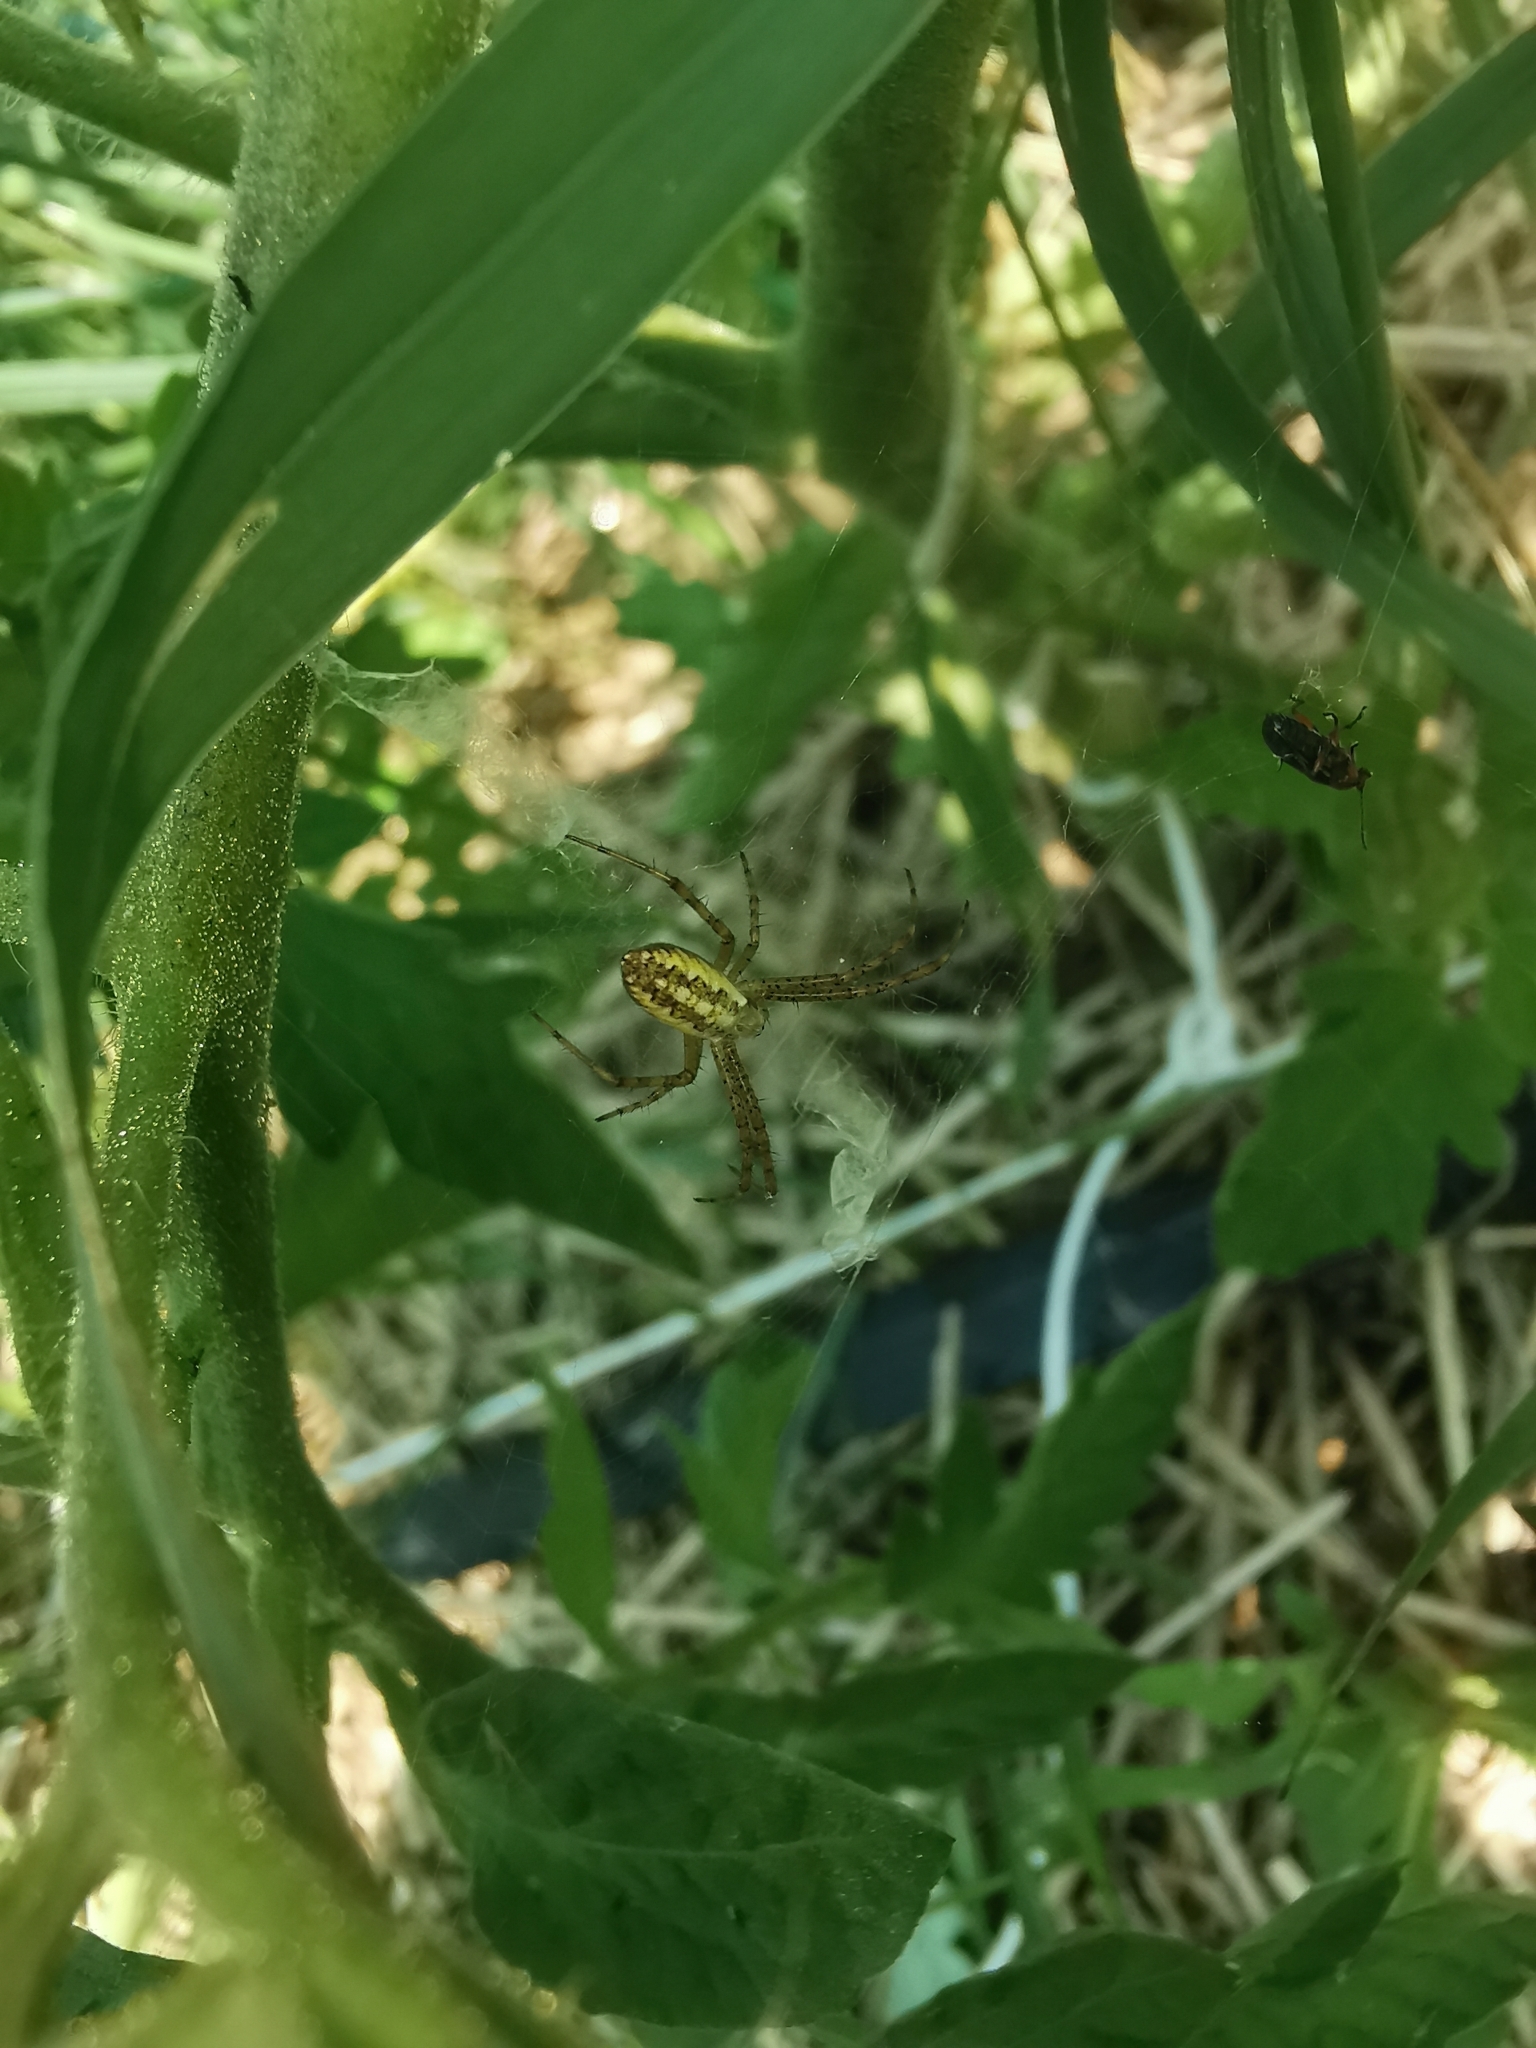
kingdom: Animalia
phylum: Arthropoda
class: Arachnida
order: Araneae
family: Araneidae
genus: Argiope
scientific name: Argiope bruennichi
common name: Wasp spider
